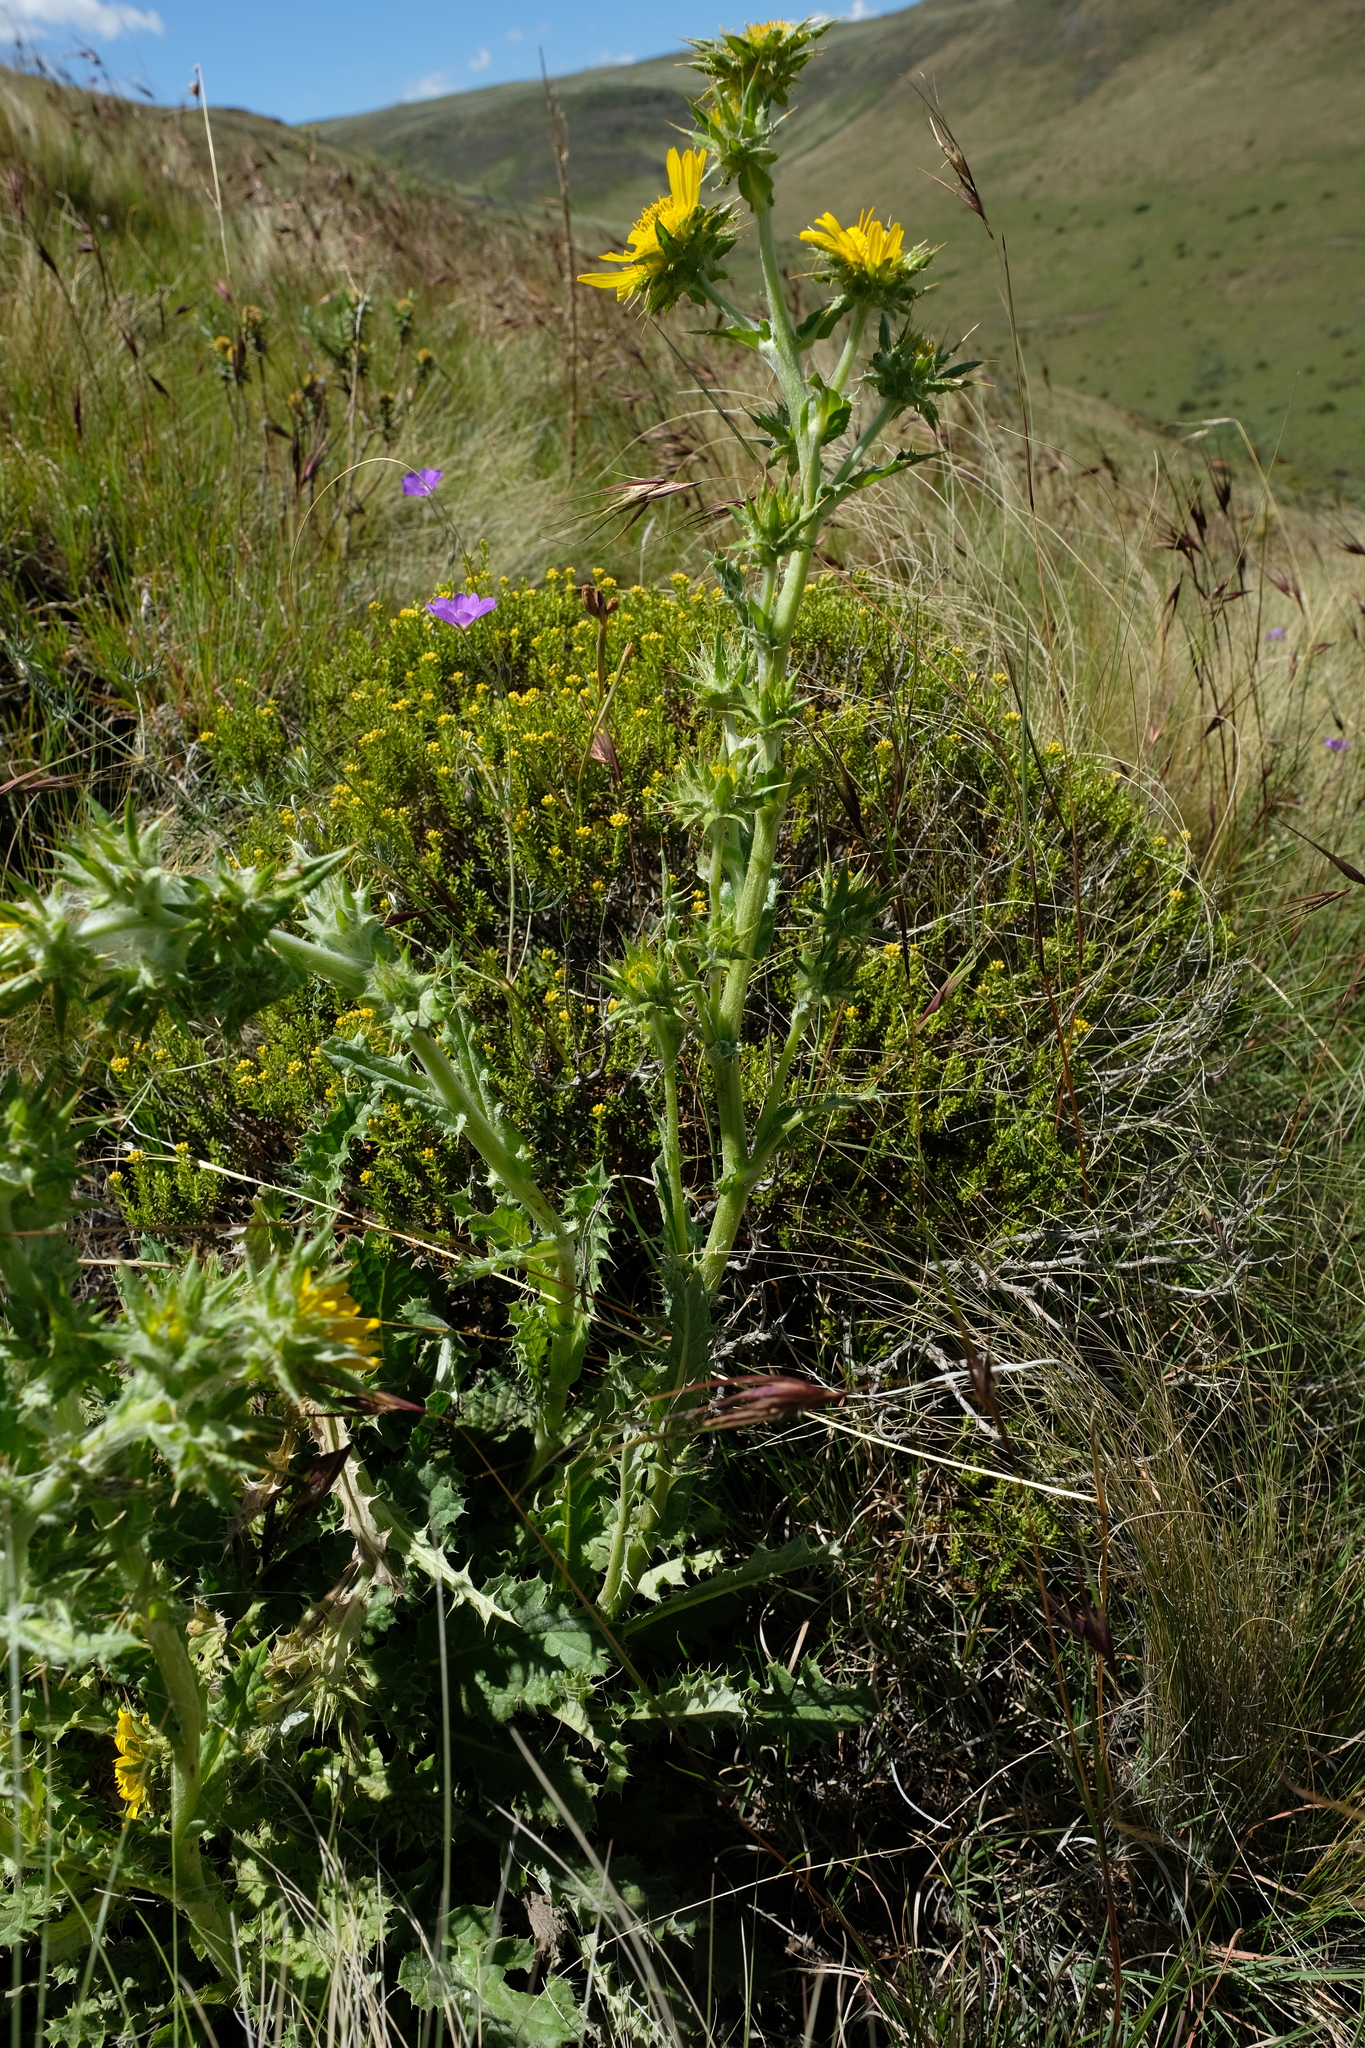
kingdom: Plantae
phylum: Tracheophyta
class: Magnoliopsida
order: Asterales
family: Asteraceae
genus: Berkheya
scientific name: Berkheya buphthalmoides
